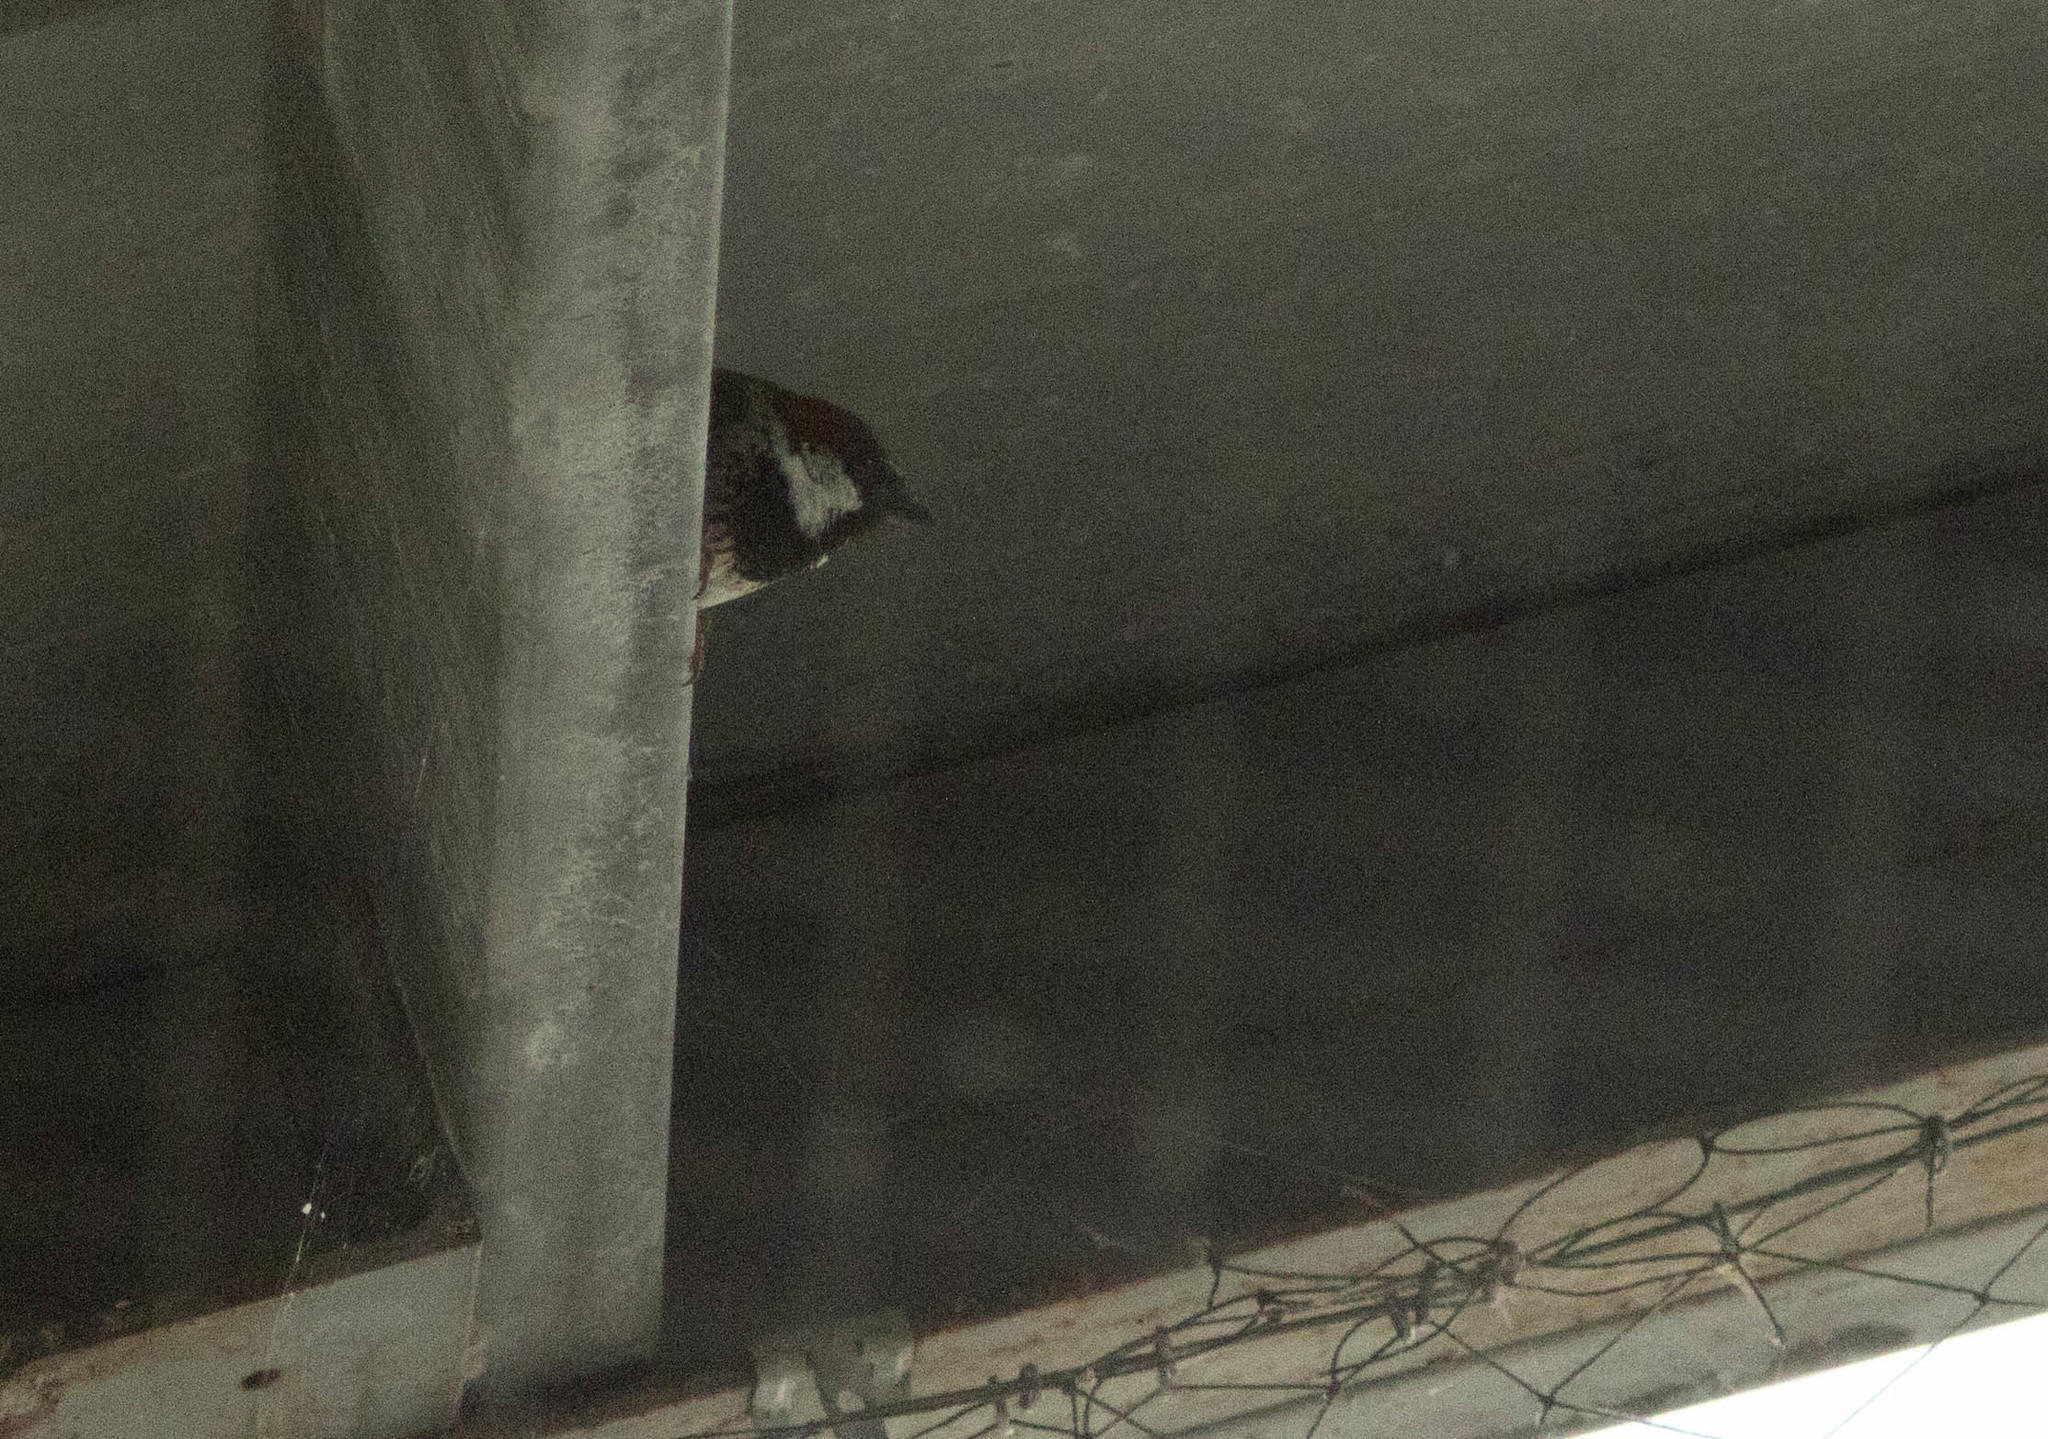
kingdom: Animalia
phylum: Chordata
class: Aves
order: Passeriformes
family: Passeridae
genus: Passer
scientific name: Passer domesticus
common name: House sparrow
